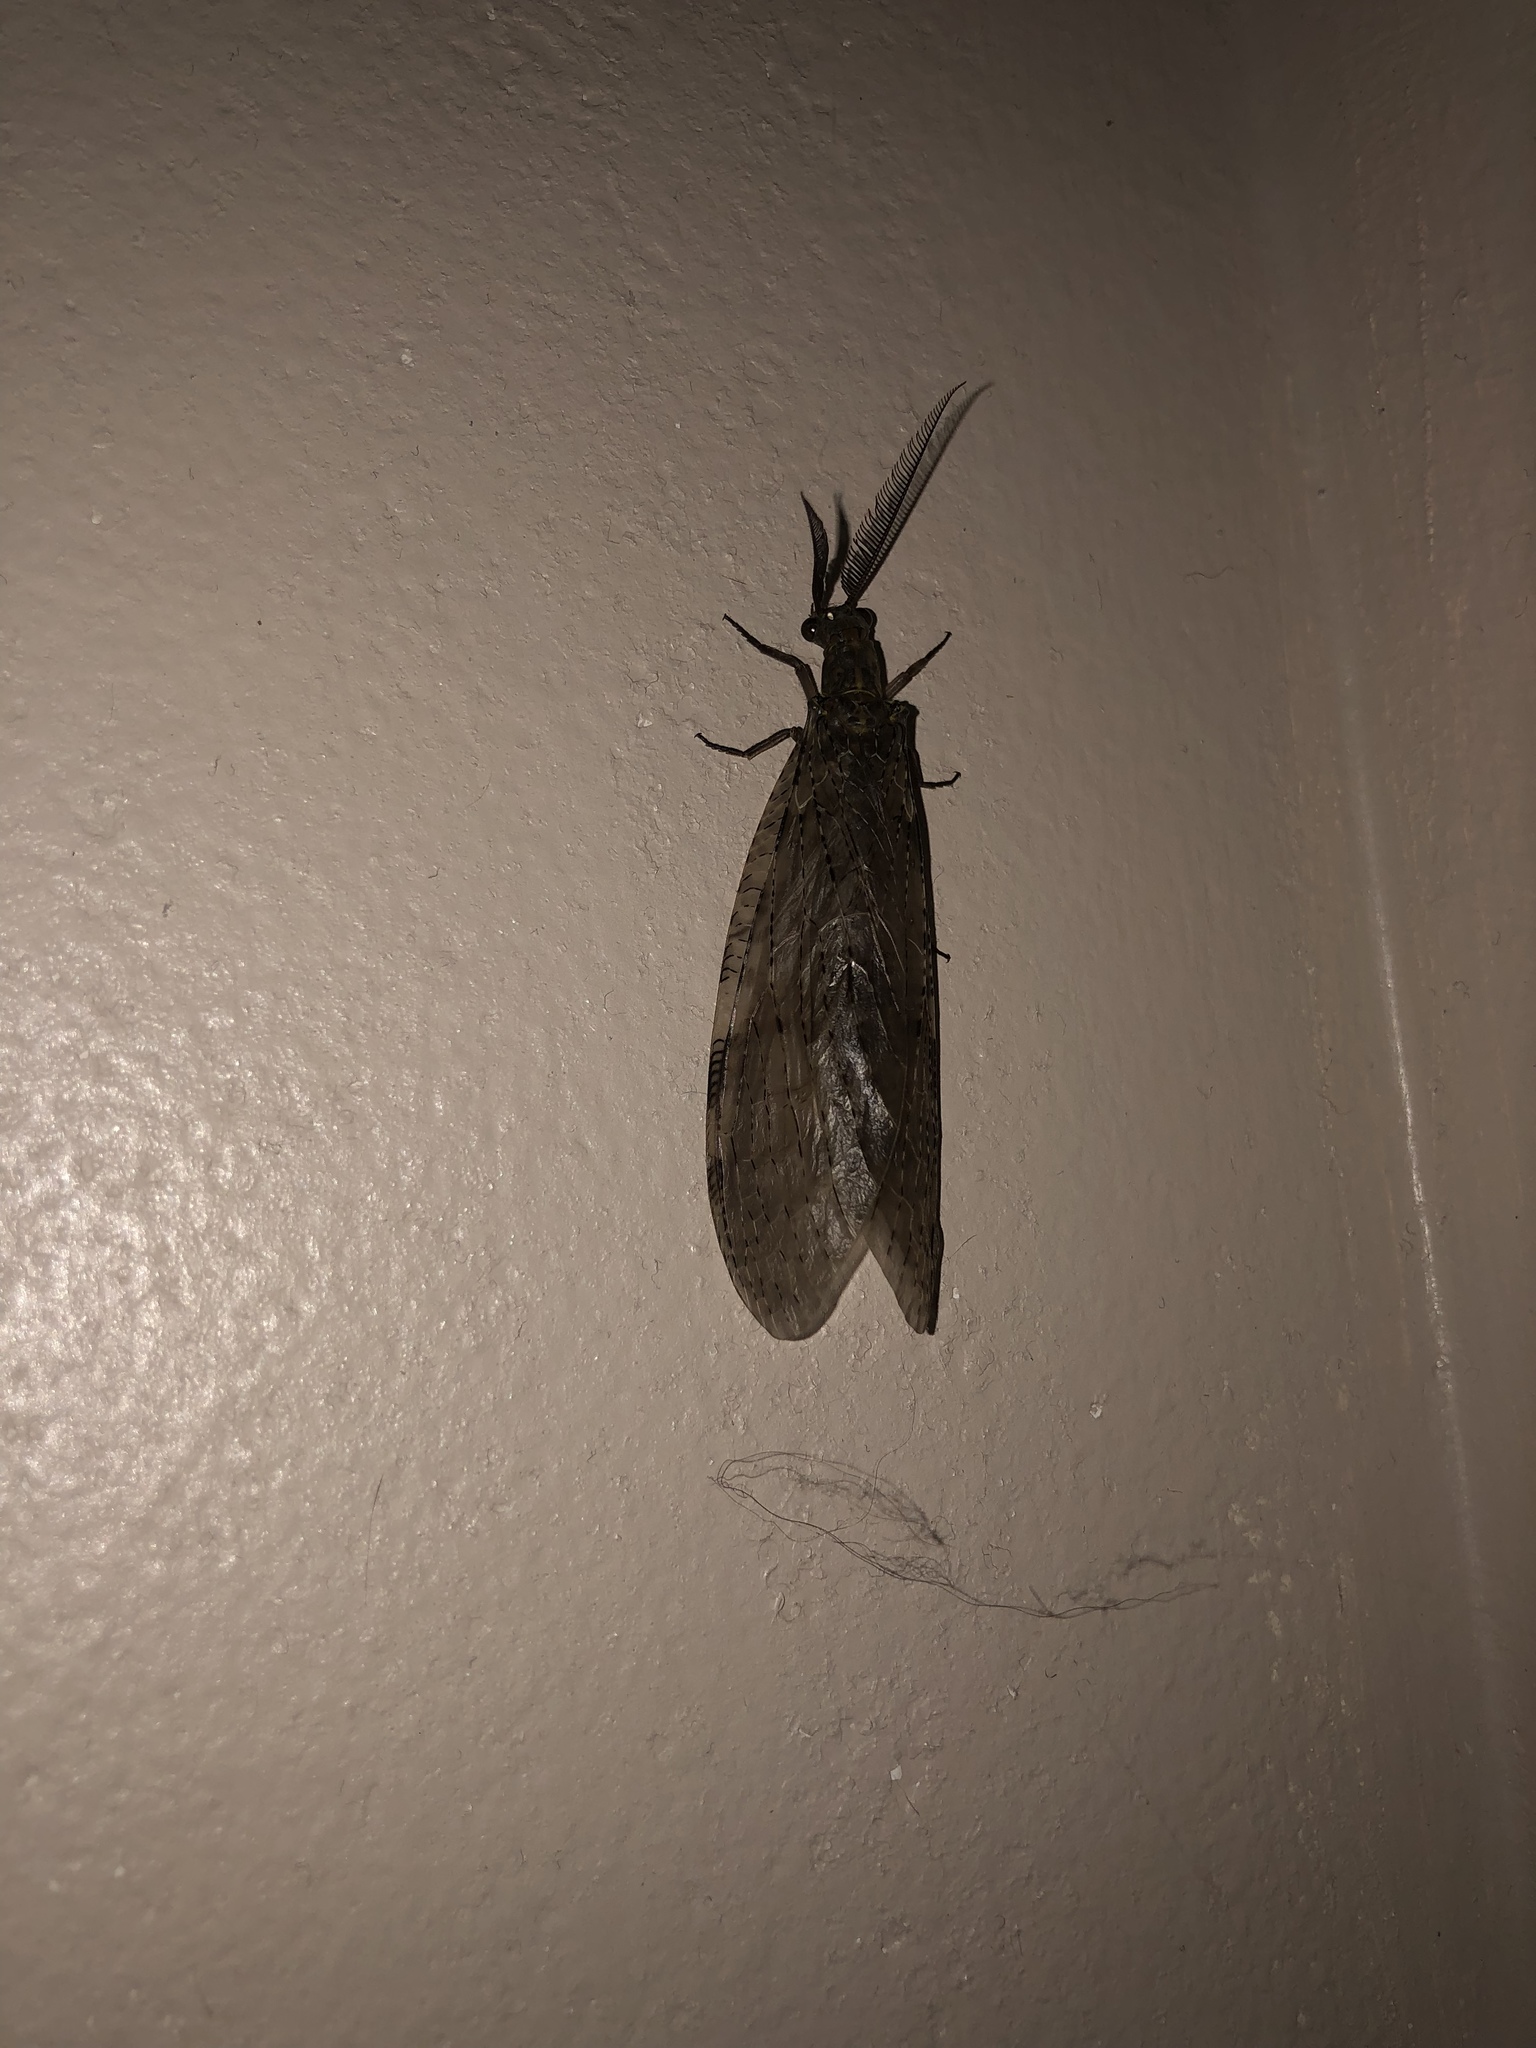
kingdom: Animalia
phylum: Arthropoda
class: Insecta
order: Megaloptera
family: Corydalidae
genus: Chauliodes
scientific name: Chauliodes pectinicornis
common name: Summer fishfly
